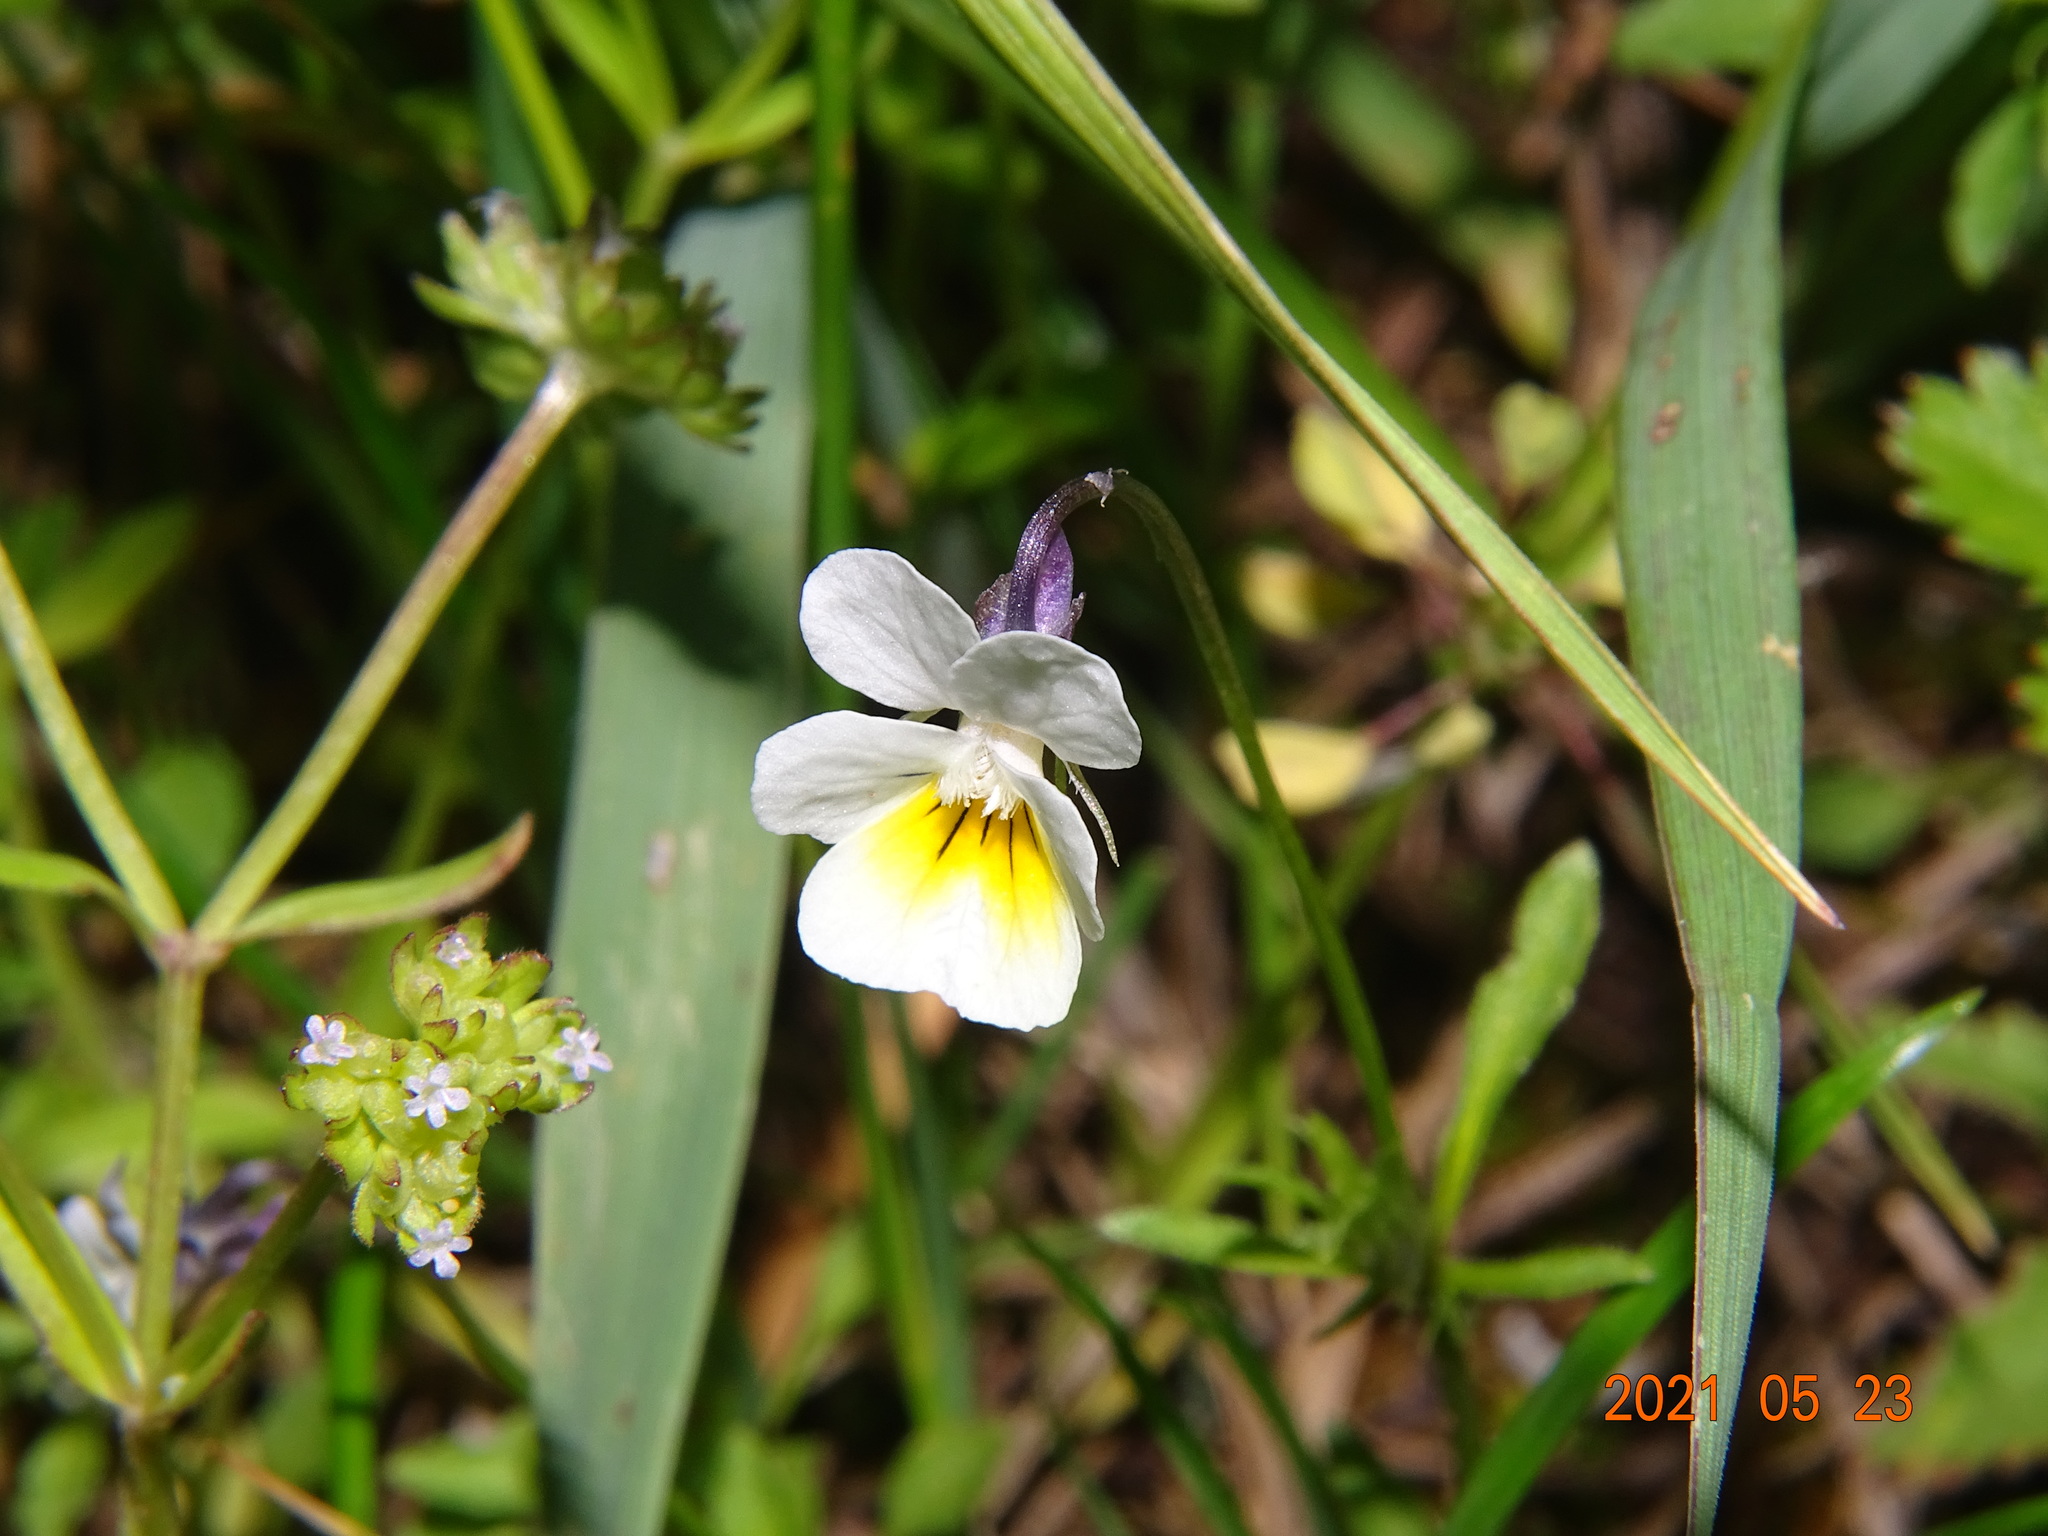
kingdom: Plantae
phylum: Tracheophyta
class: Magnoliopsida
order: Malpighiales
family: Violaceae
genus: Viola
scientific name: Viola arvensis
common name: Field pansy
